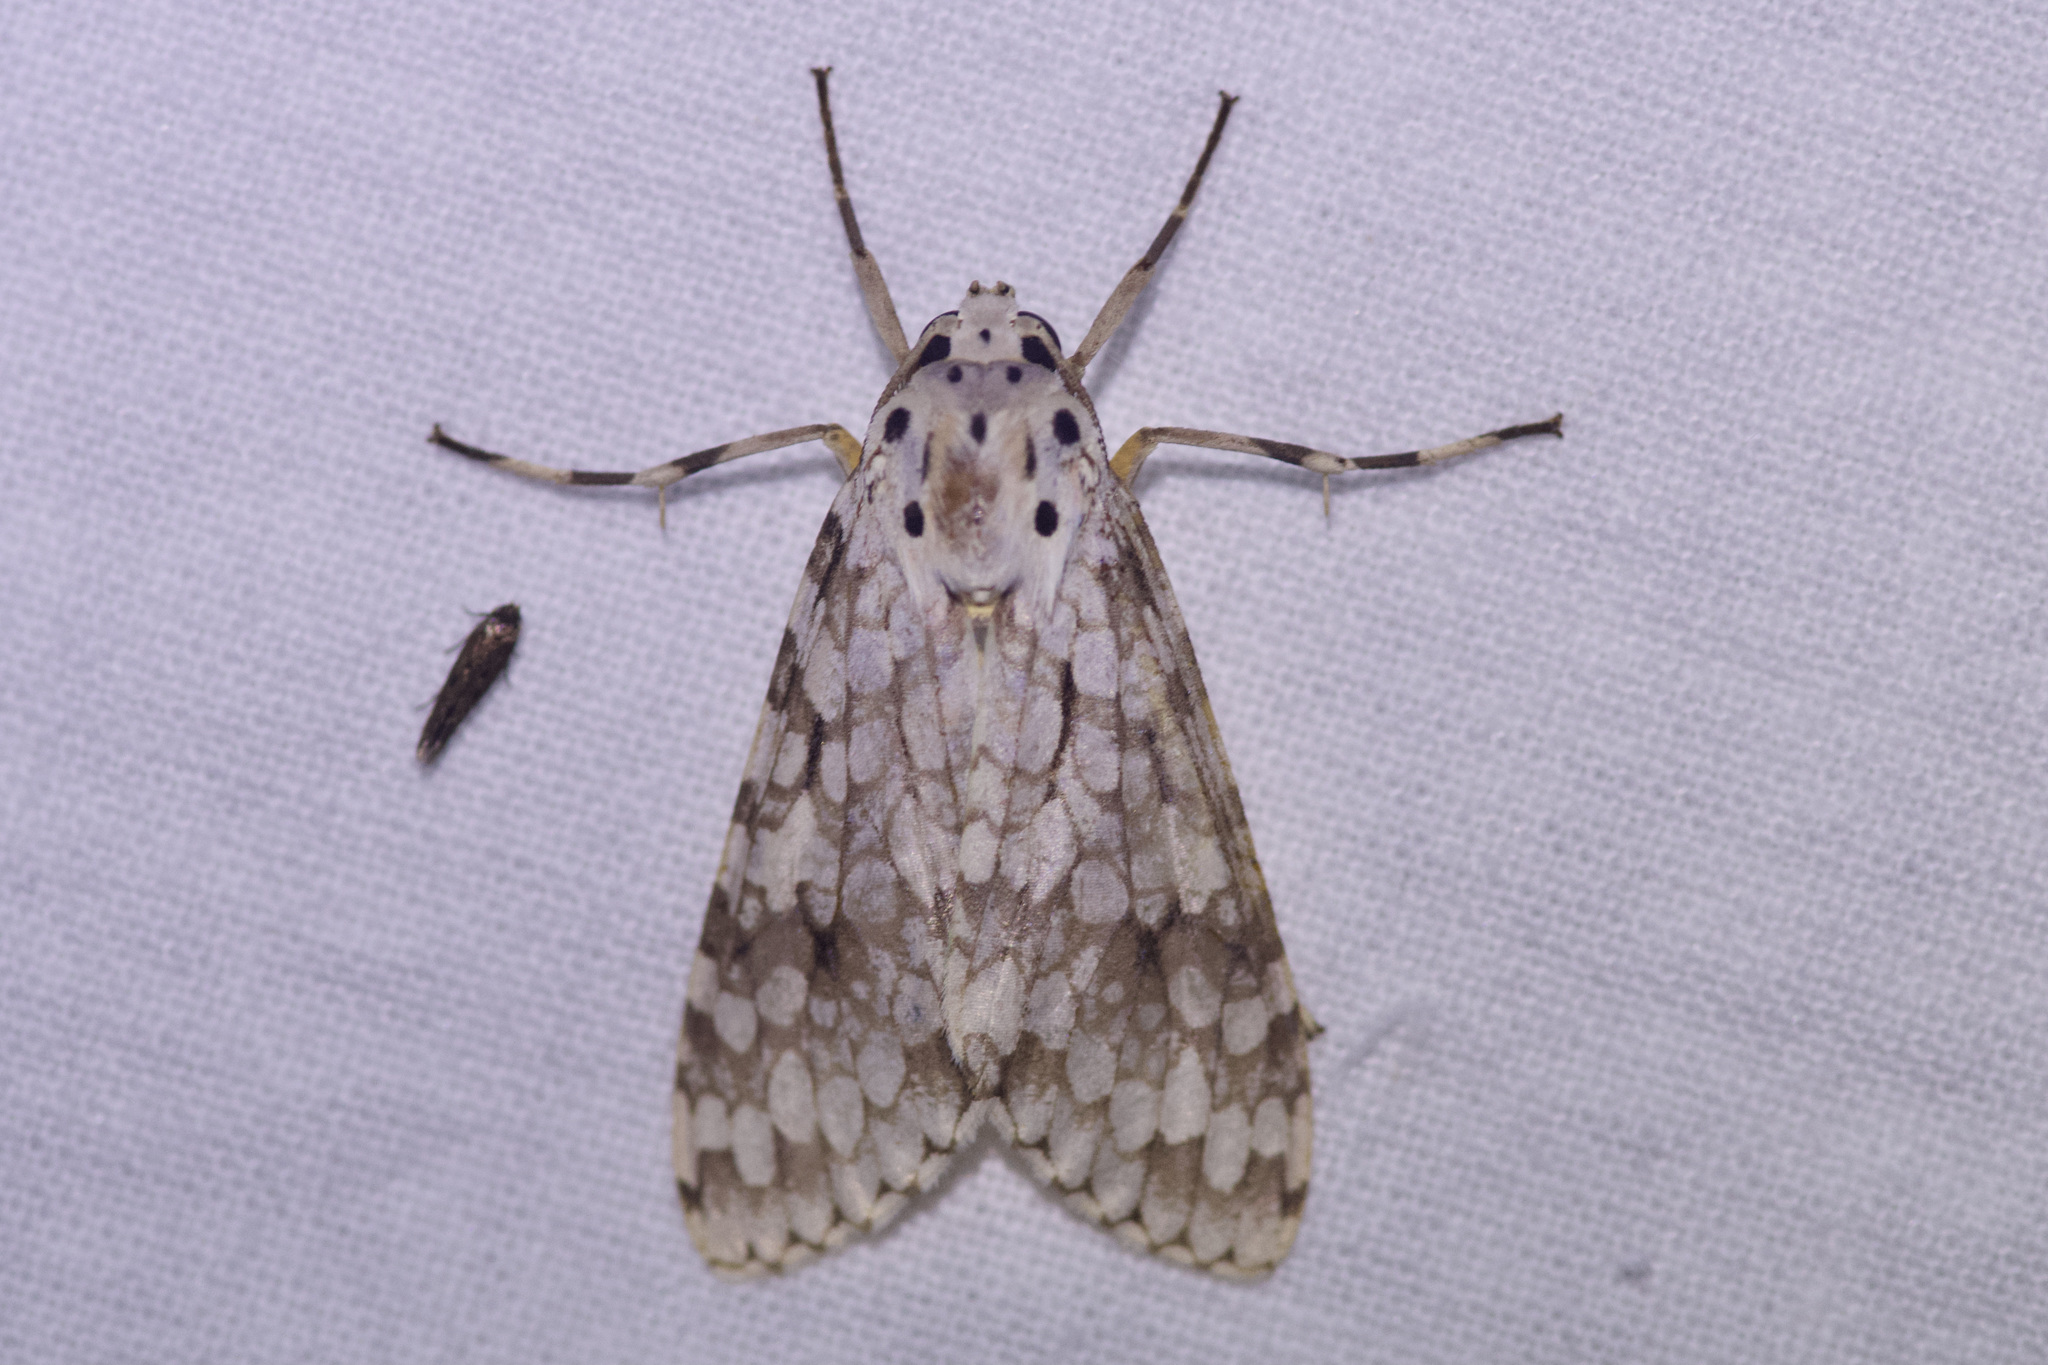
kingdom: Animalia
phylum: Arthropoda
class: Insecta
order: Lepidoptera
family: Erebidae
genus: Carales
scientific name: Carales astur
